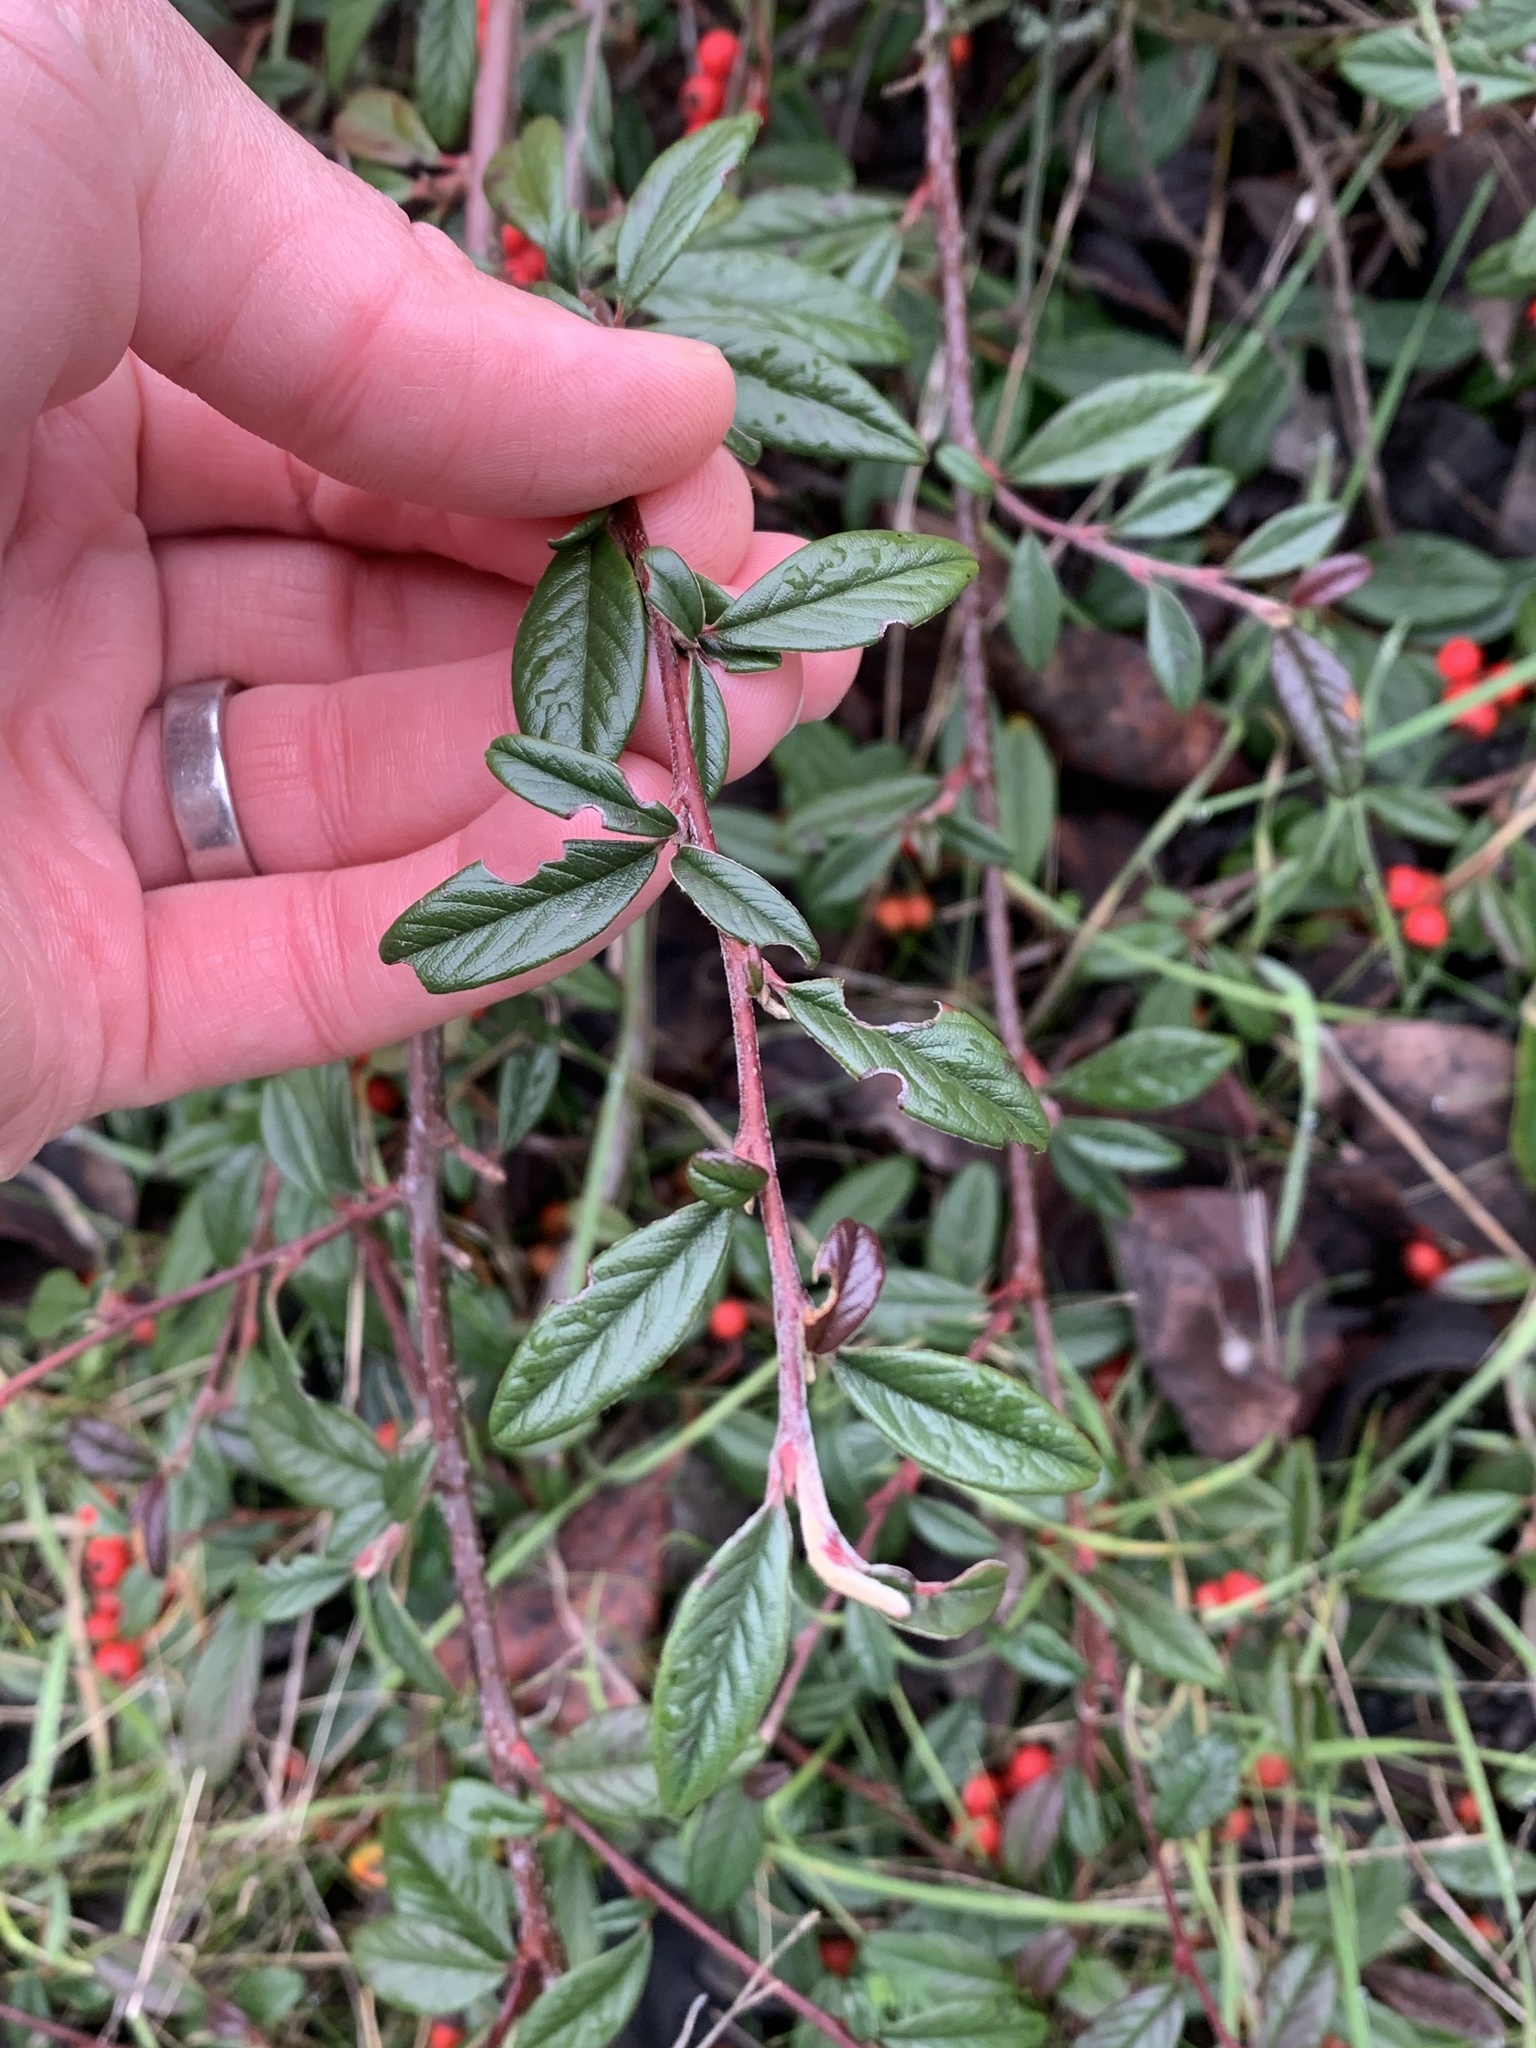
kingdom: Plantae
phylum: Tracheophyta
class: Magnoliopsida
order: Rosales
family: Rosaceae
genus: Cotoneaster
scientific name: Cotoneaster salicifolius
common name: Willow-leaved cotoneaster
